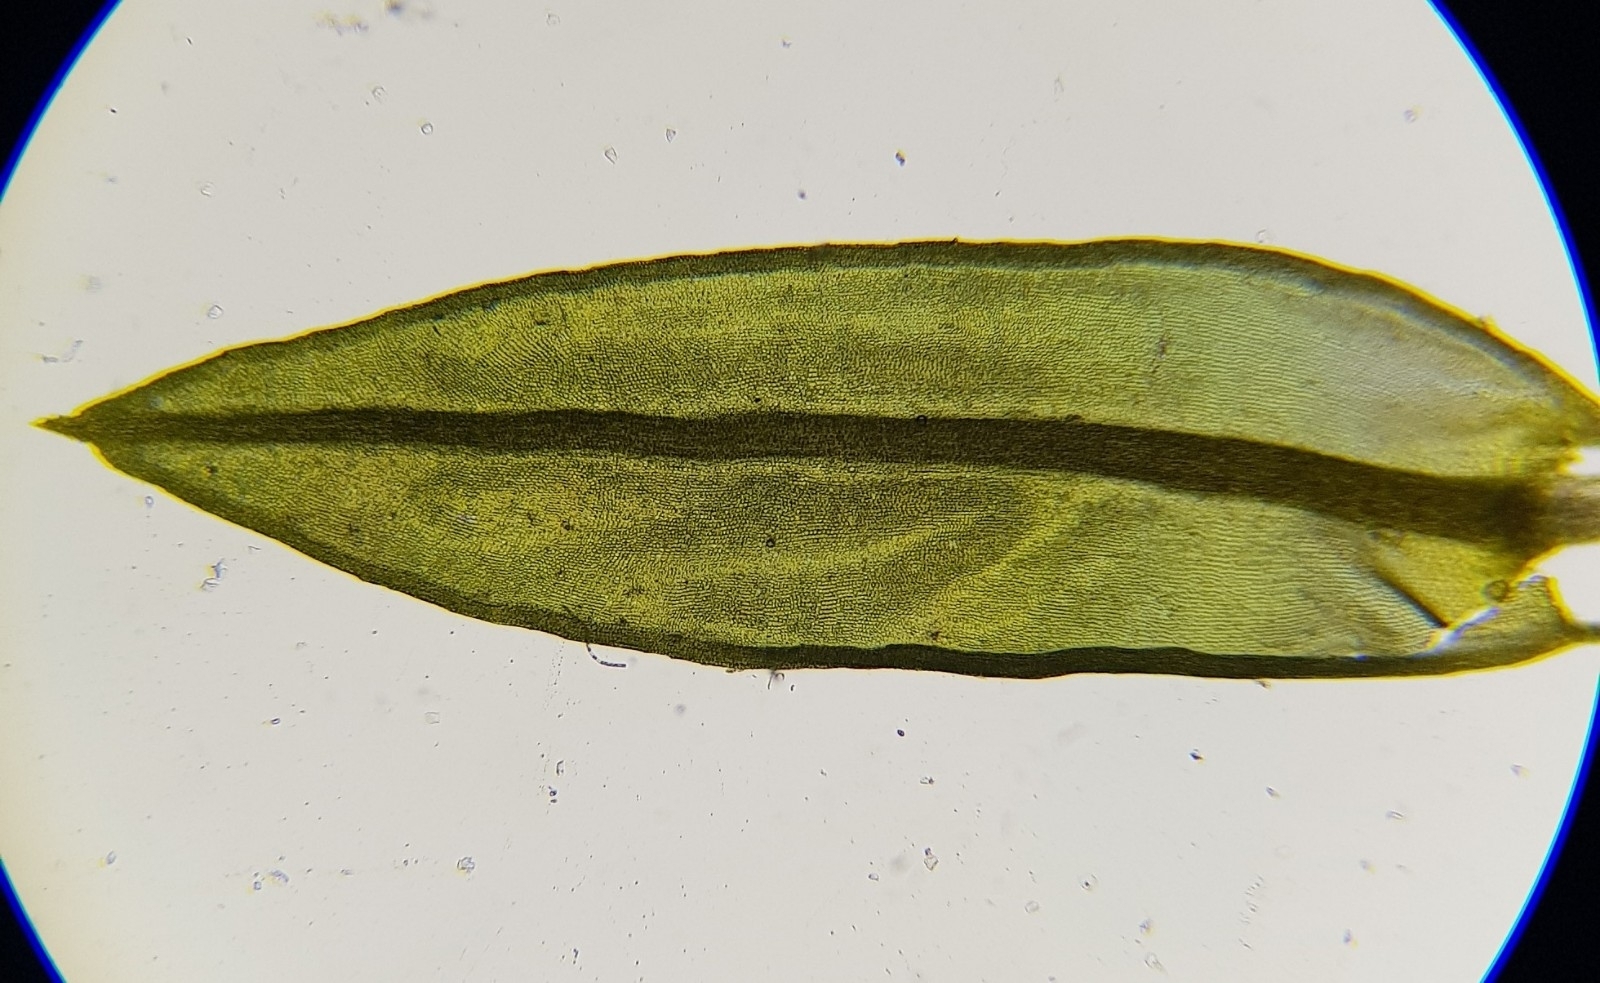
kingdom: Plantae
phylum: Bryophyta
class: Bryopsida
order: Pottiales
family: Pottiaceae
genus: Cinclidotus
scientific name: Cinclidotus fontinaloides
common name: Smaller lattice-moss
